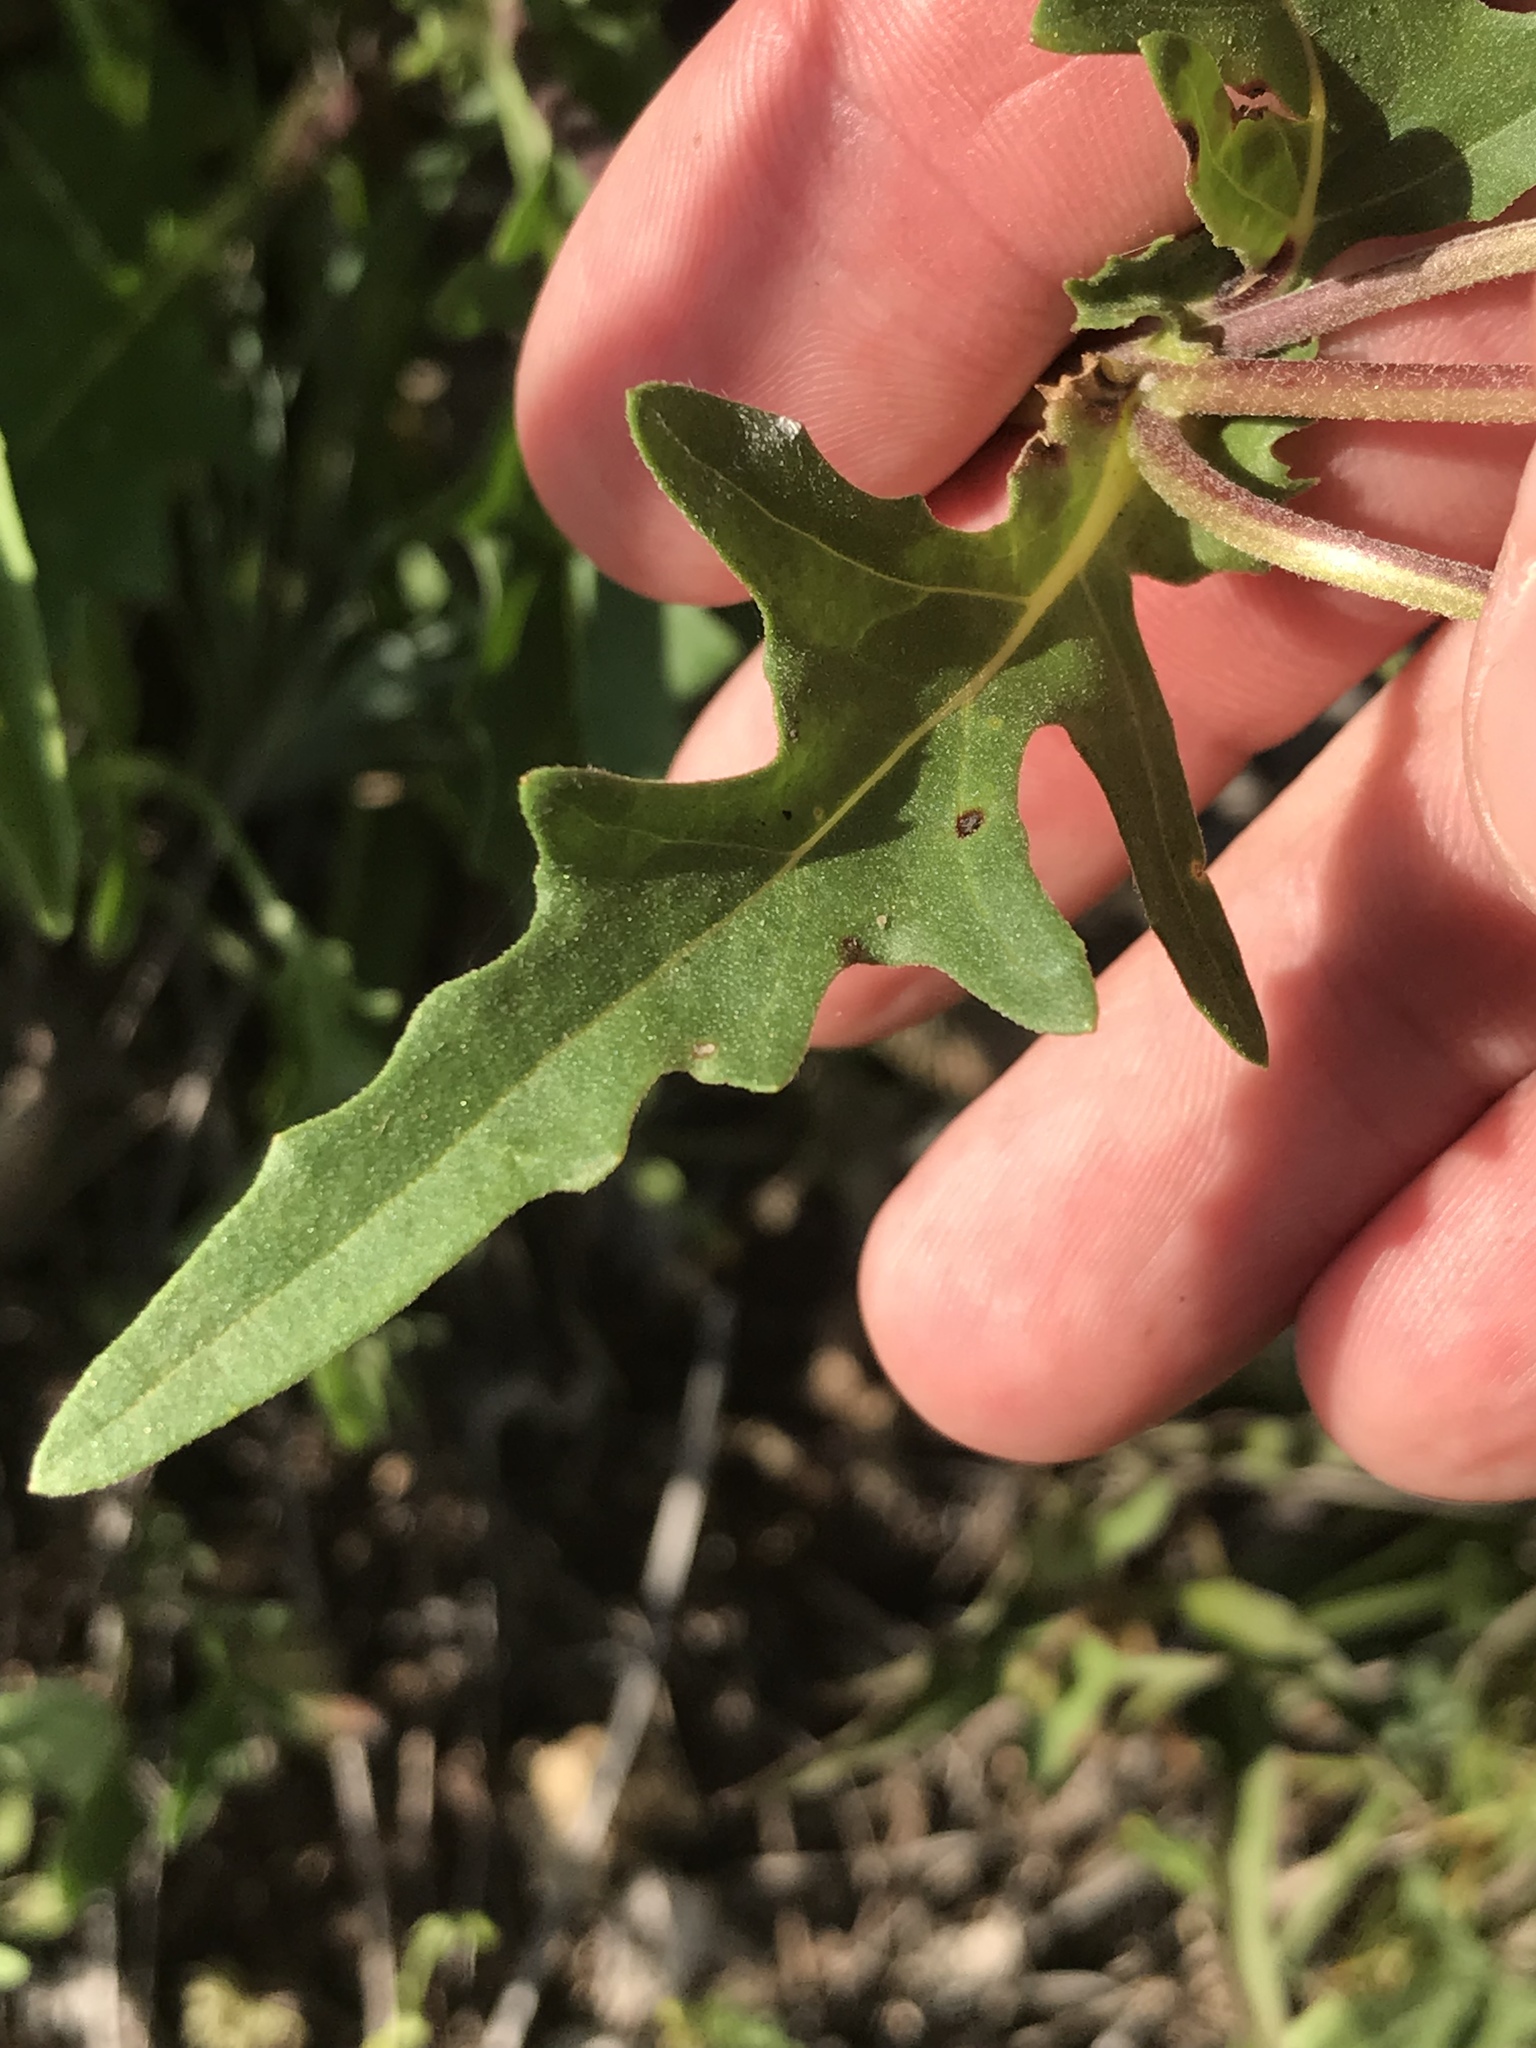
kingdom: Plantae
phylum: Tracheophyta
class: Magnoliopsida
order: Asterales
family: Asteraceae
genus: Tetragonotheca
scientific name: Tetragonotheca texana
